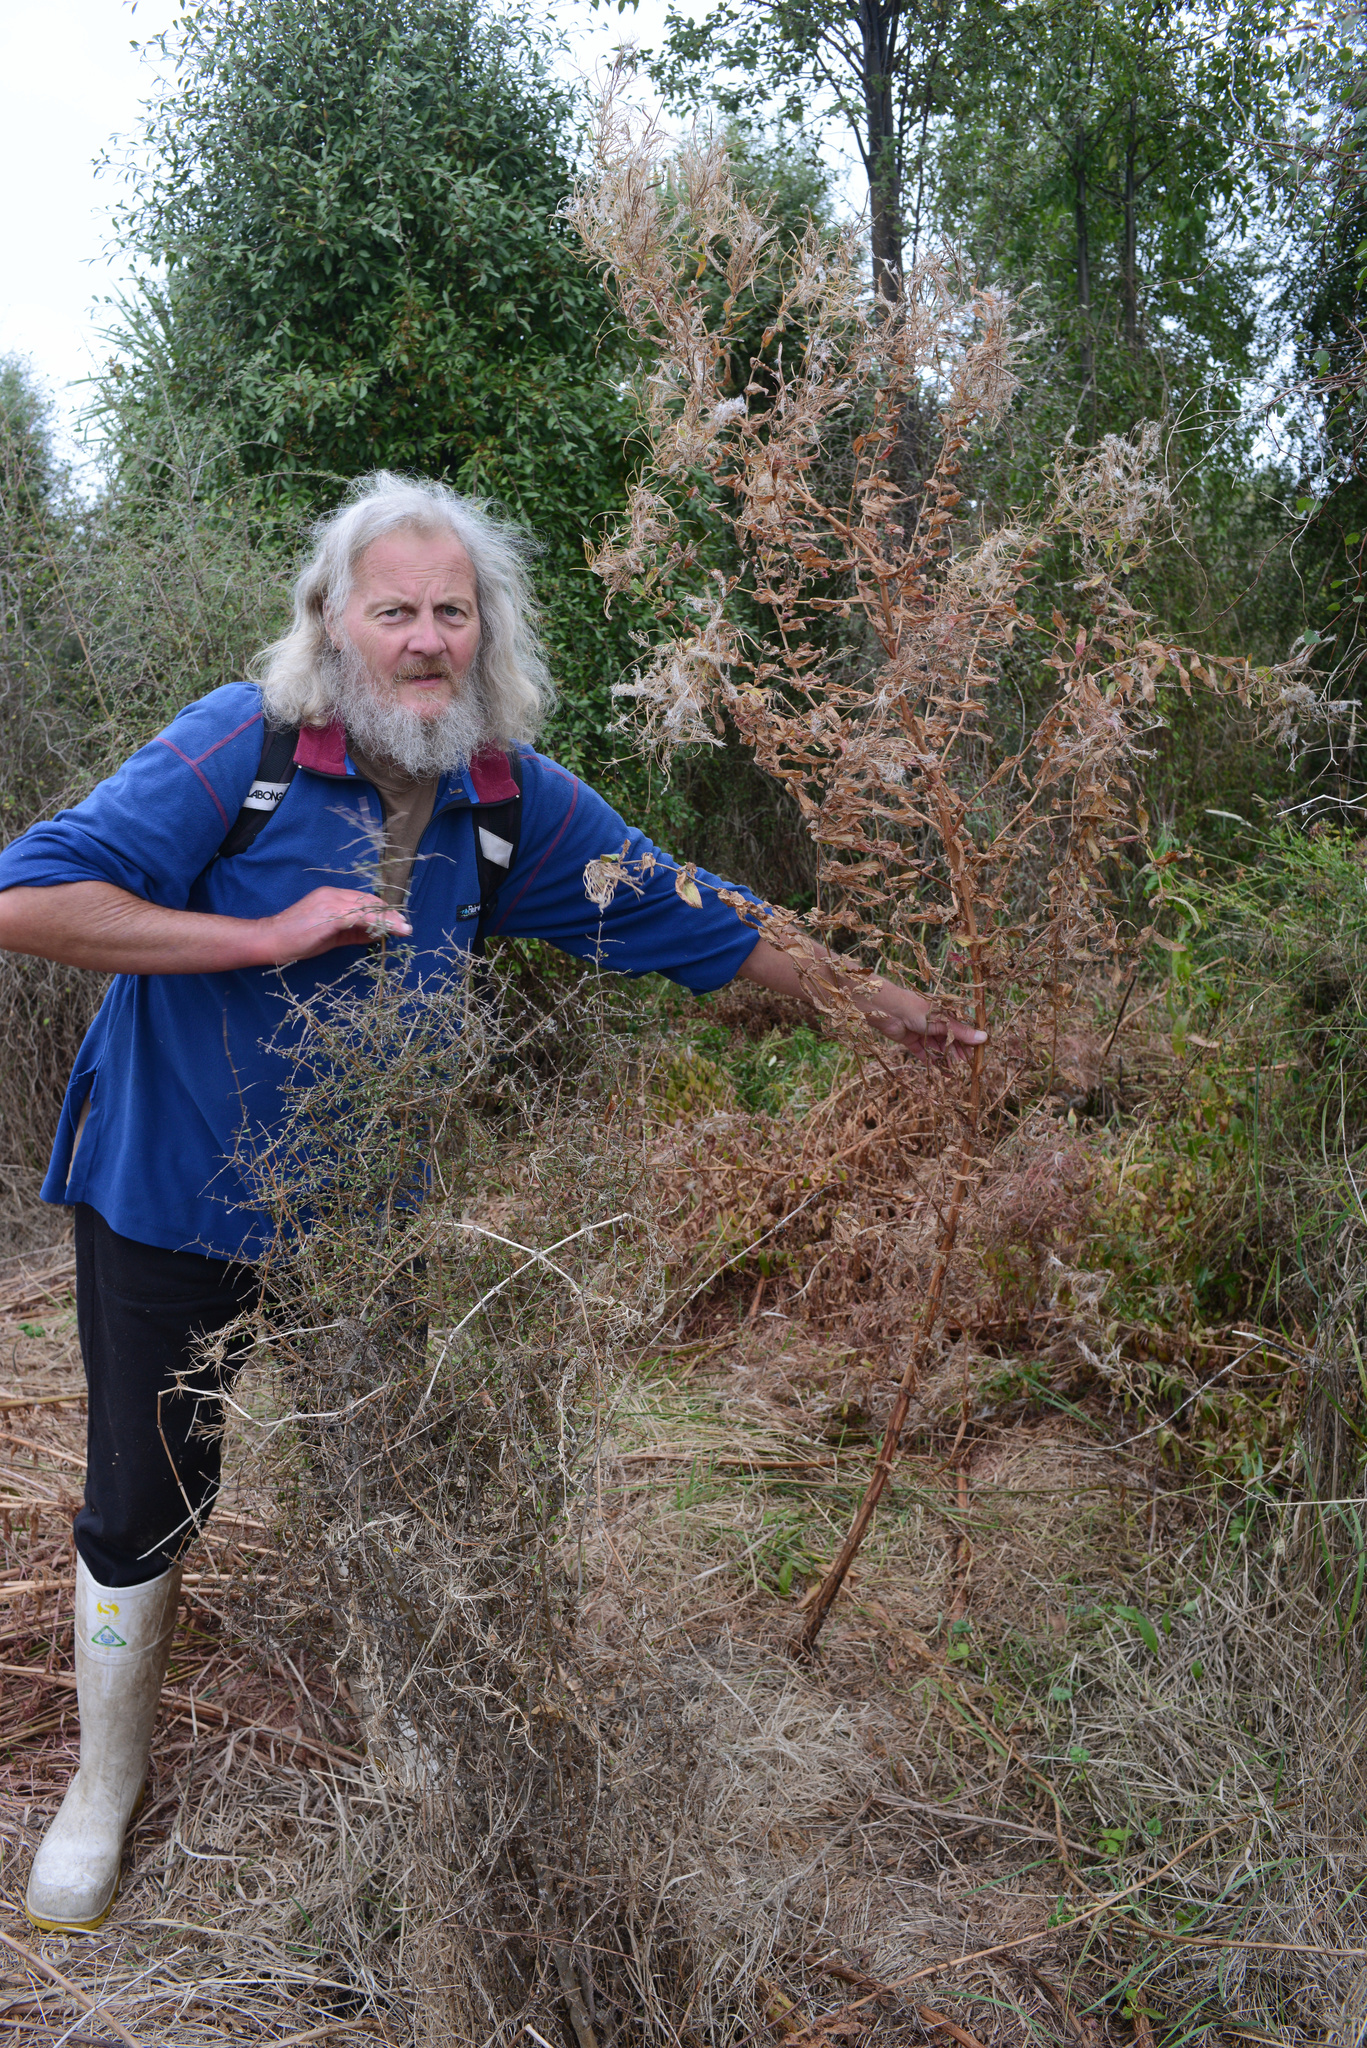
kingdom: Plantae
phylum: Tracheophyta
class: Magnoliopsida
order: Myrtales
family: Onagraceae
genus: Epilobium
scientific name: Epilobium hirsutum
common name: Great willowherb
